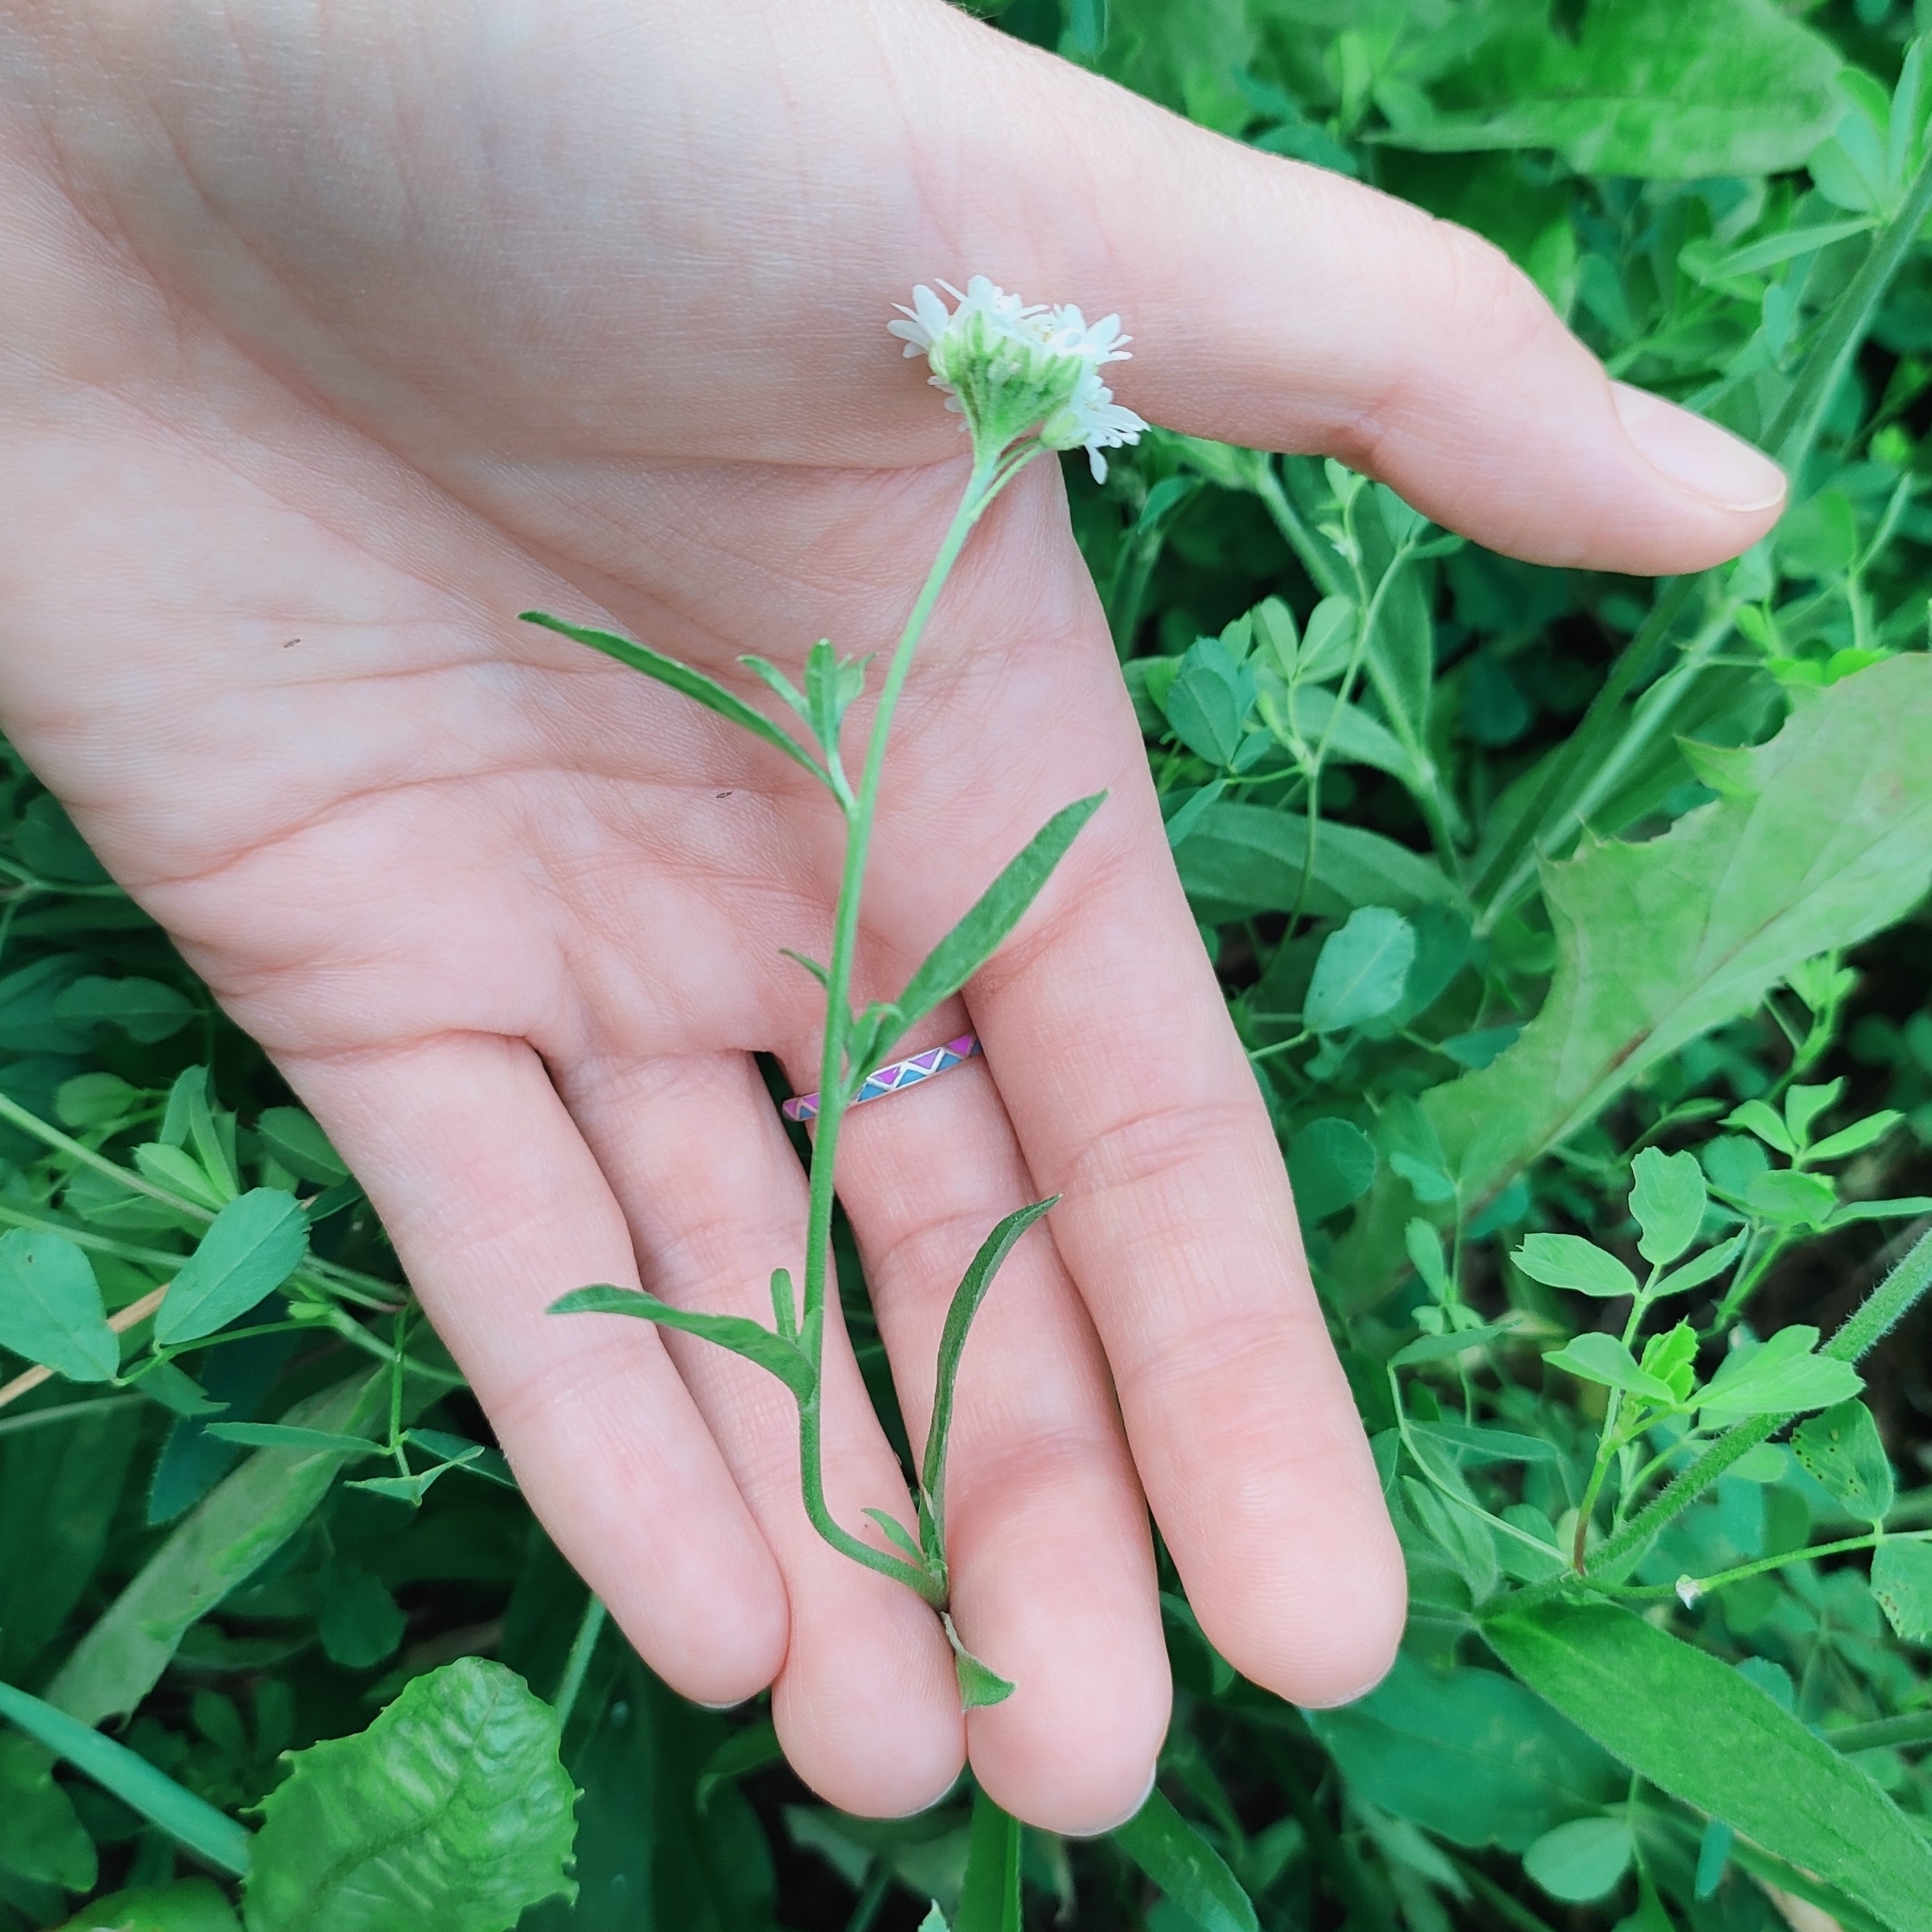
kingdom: Plantae
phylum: Tracheophyta
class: Magnoliopsida
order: Brassicales
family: Brassicaceae
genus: Berteroa
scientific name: Berteroa incana
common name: Hoary alison
